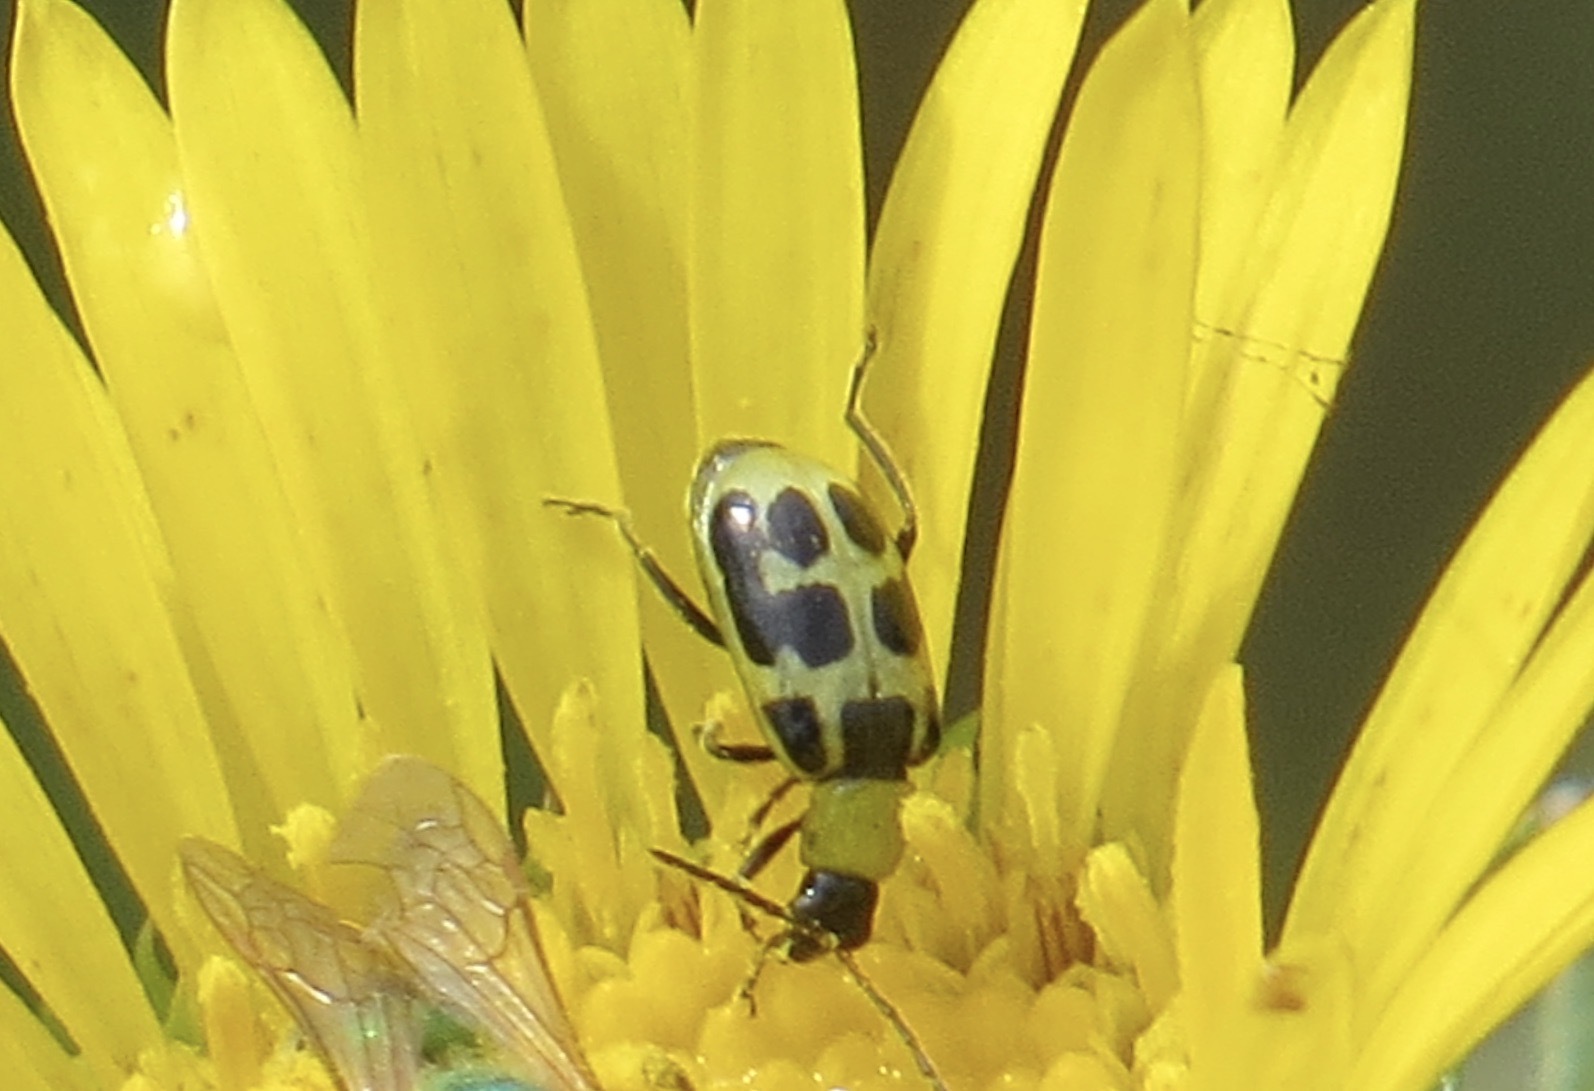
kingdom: Animalia
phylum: Arthropoda
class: Insecta
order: Coleoptera
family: Chrysomelidae
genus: Diabrotica
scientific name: Diabrotica undecimpunctata
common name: Spotted cucumber beetle
